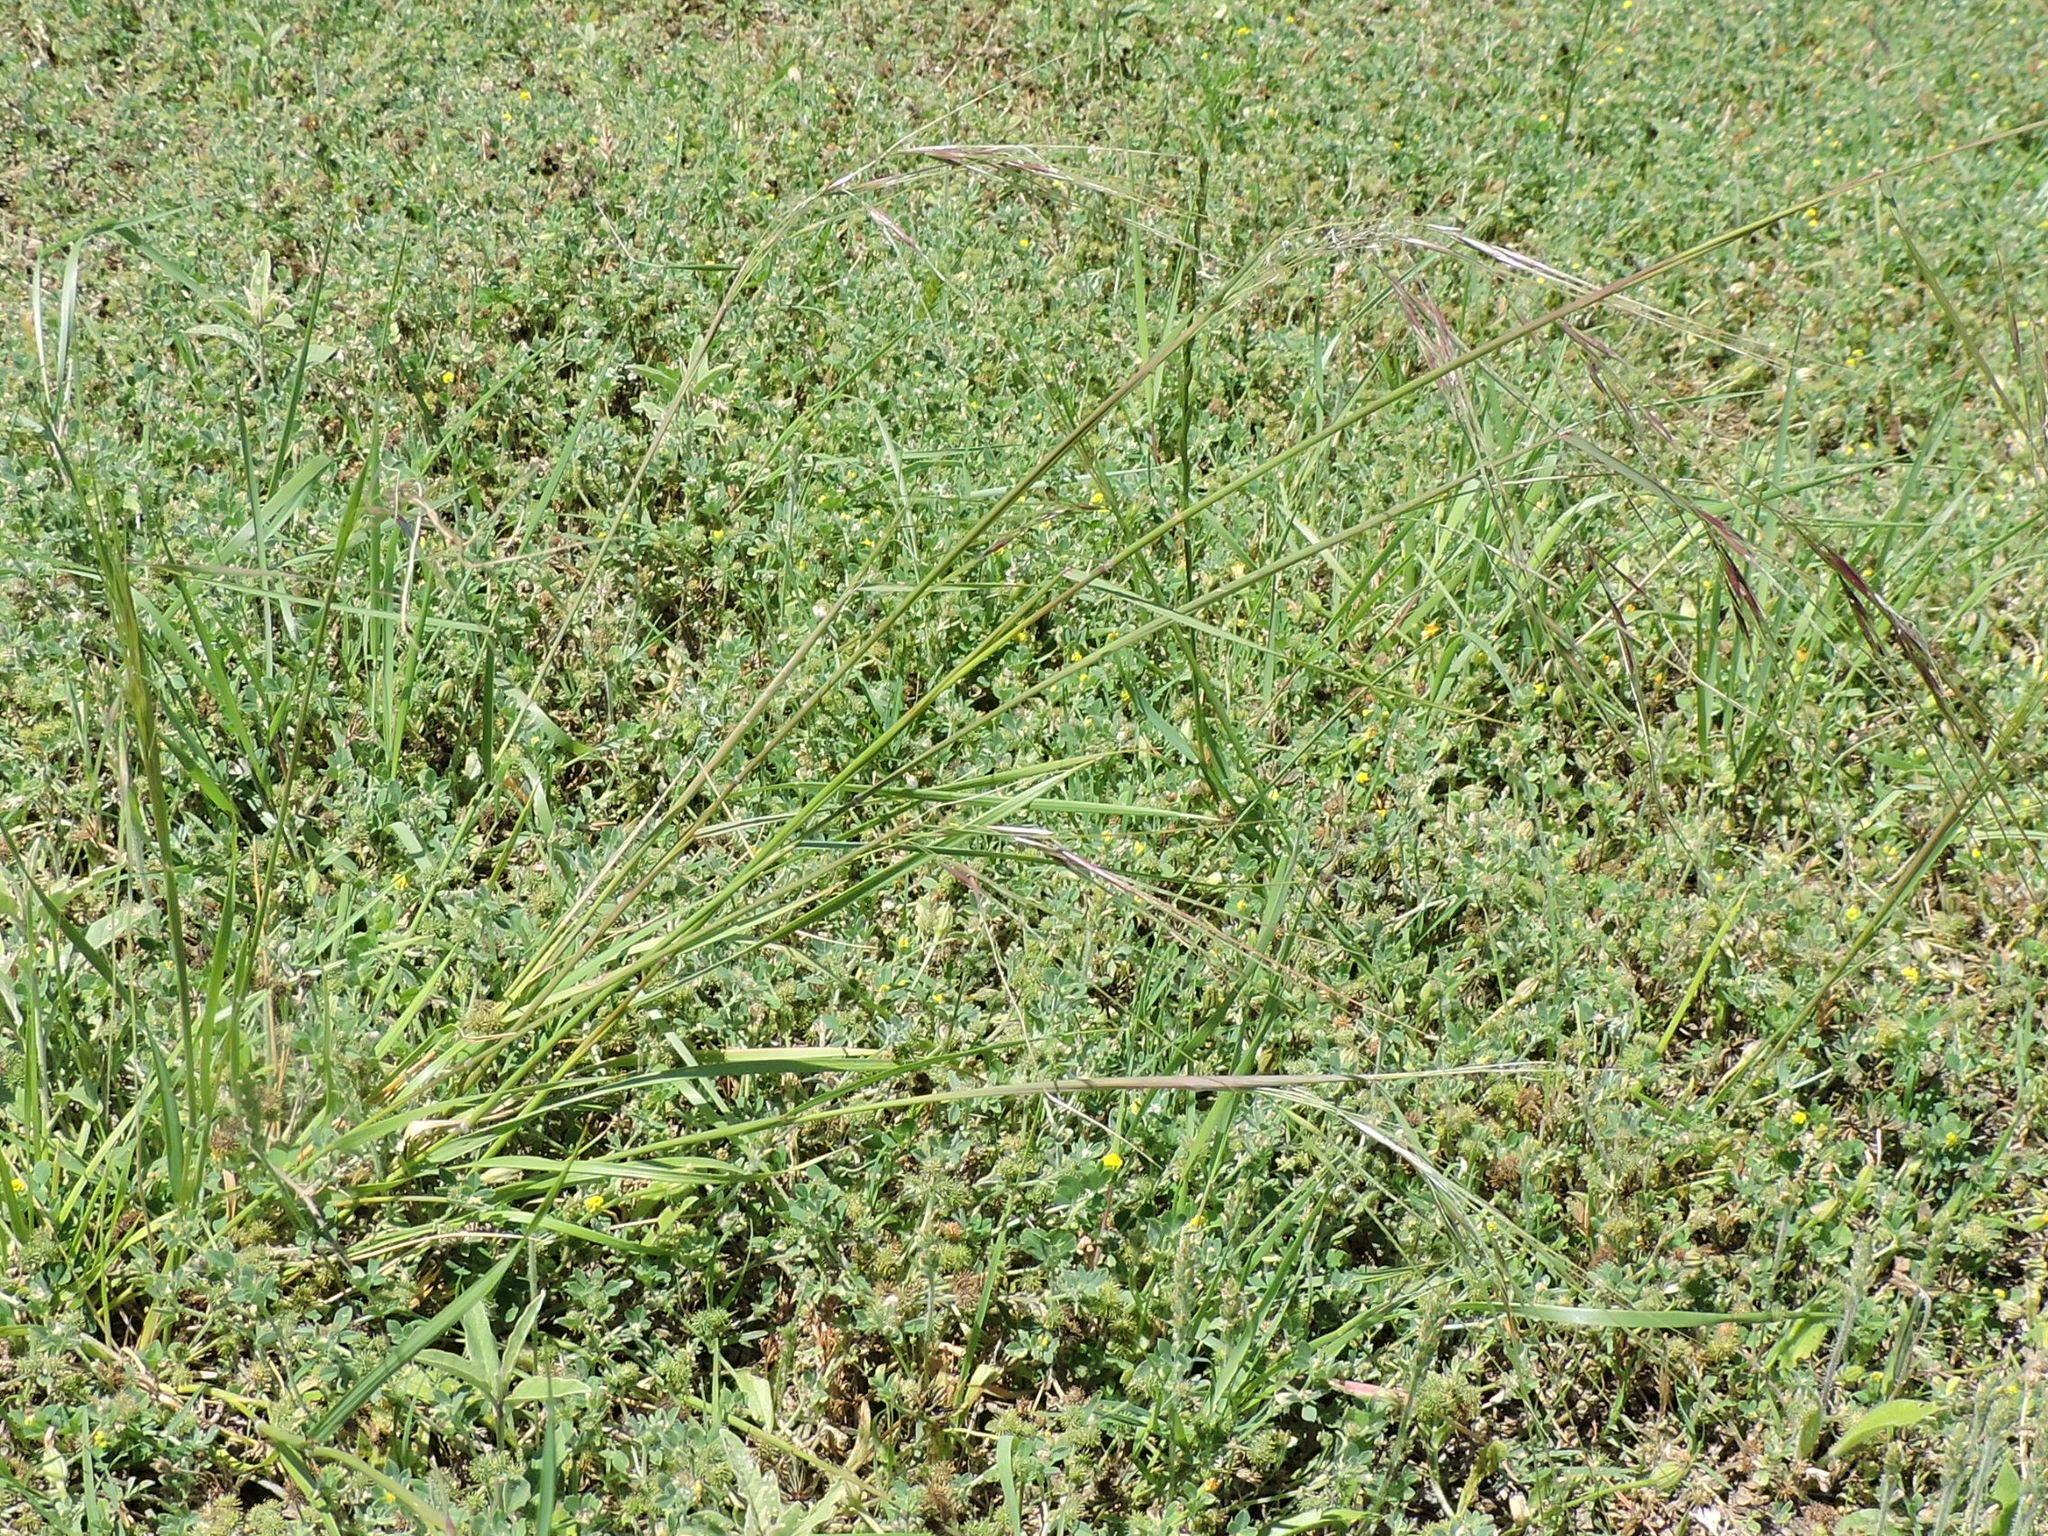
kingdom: Plantae
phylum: Tracheophyta
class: Liliopsida
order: Poales
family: Poaceae
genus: Nassella
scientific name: Nassella leucotricha
